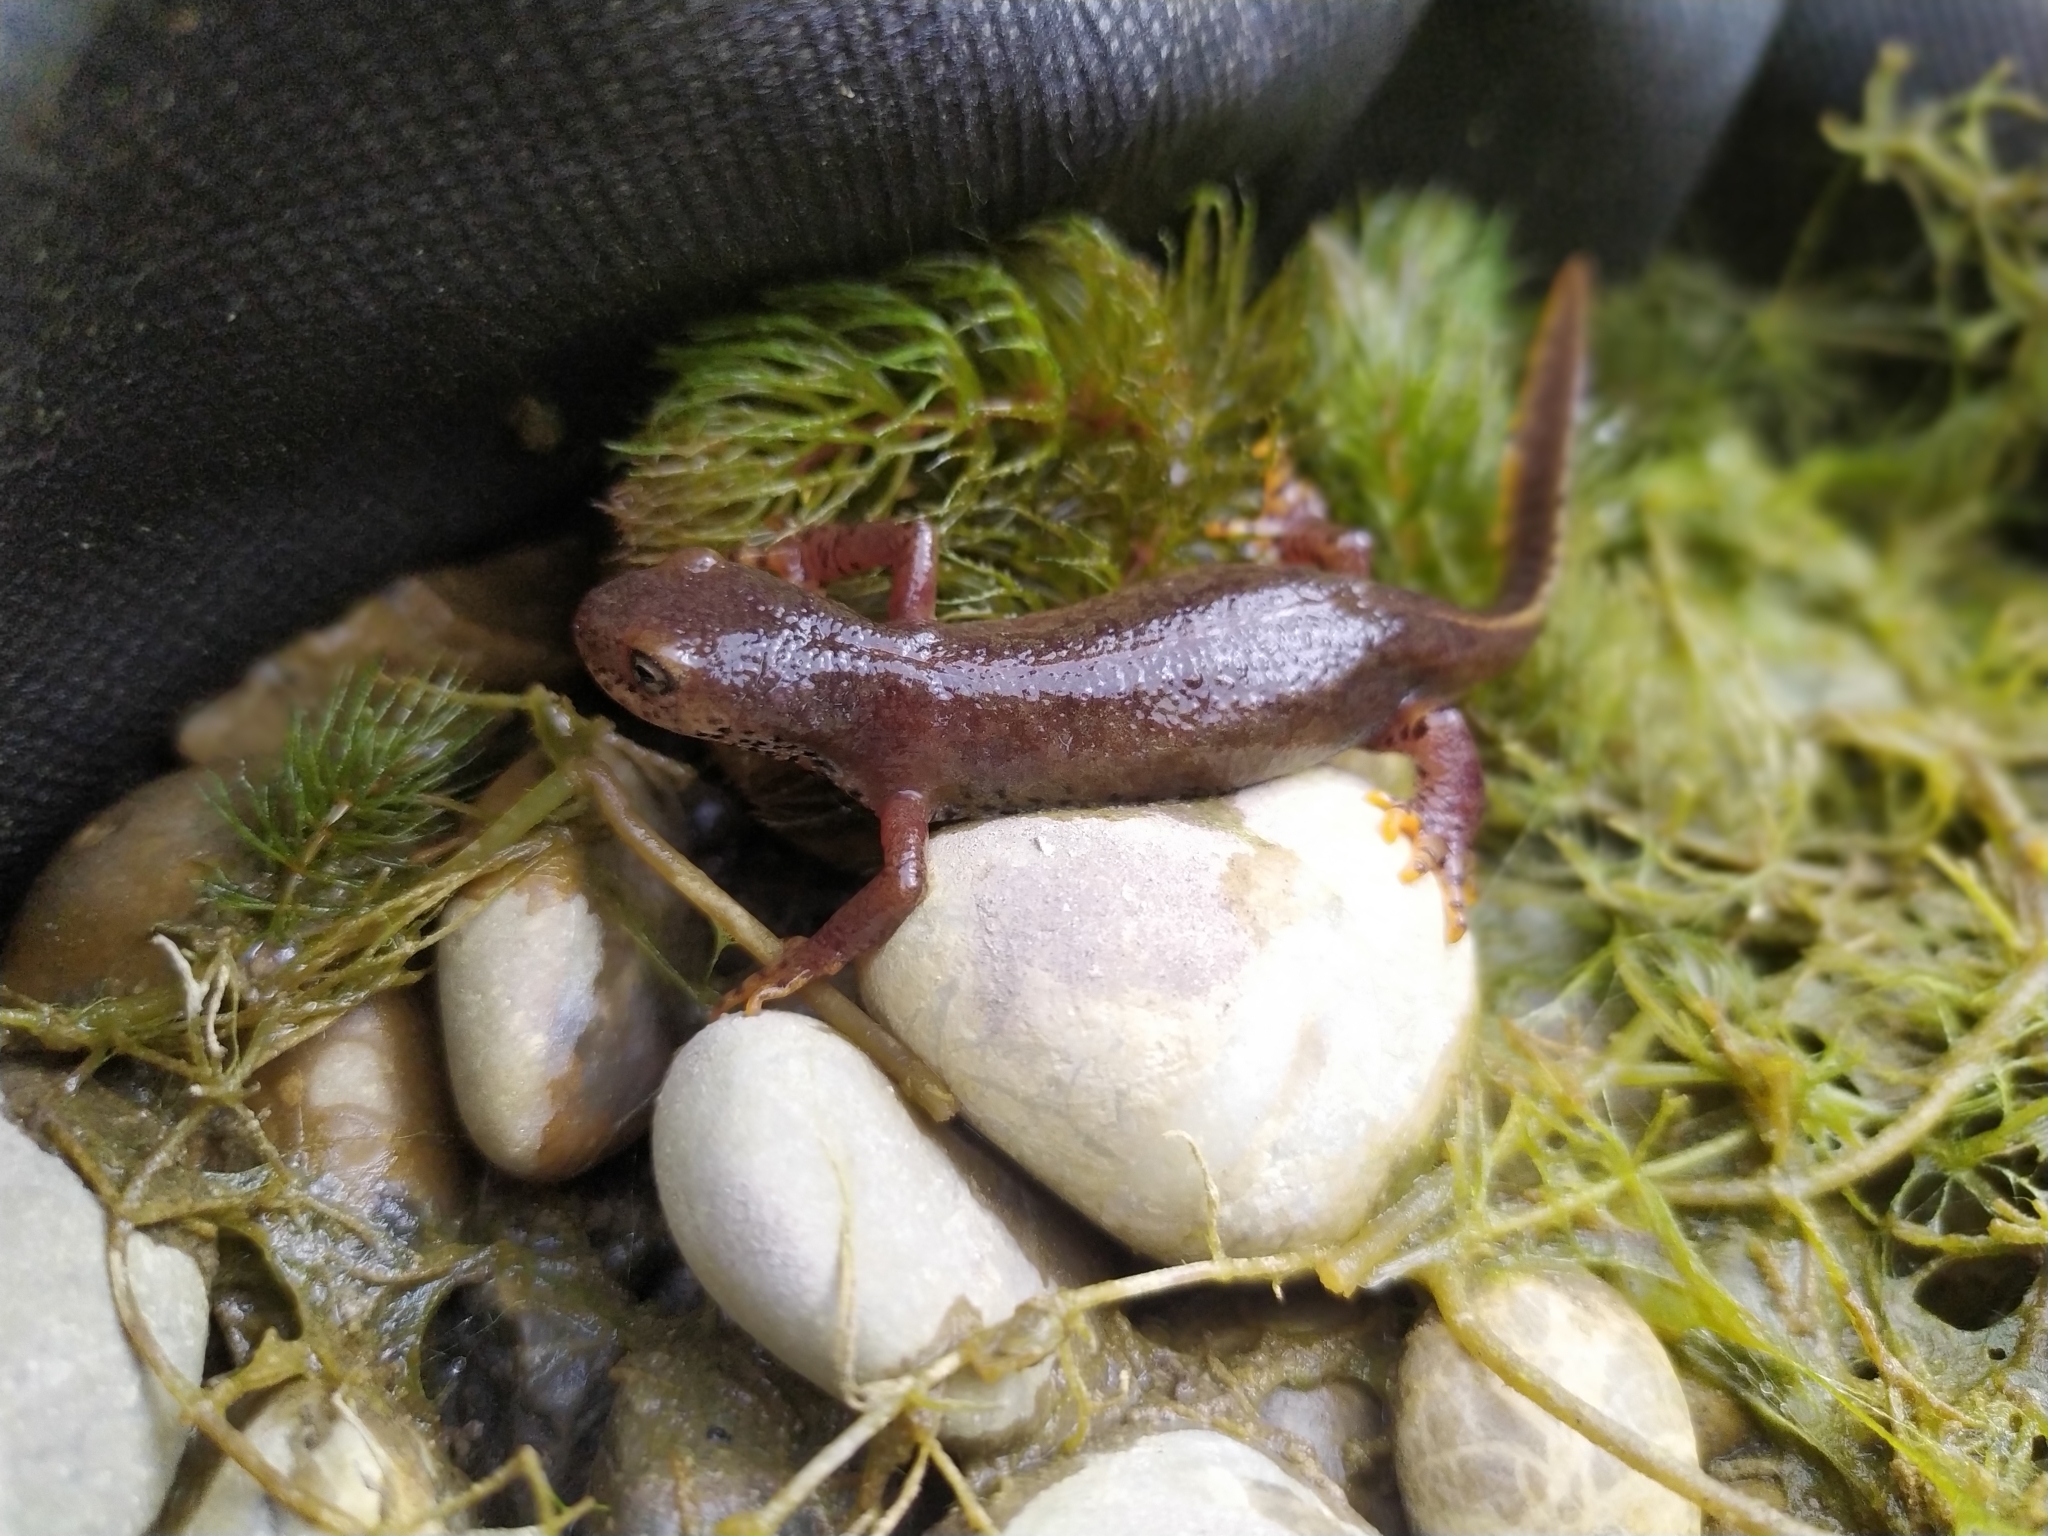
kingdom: Animalia
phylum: Chordata
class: Amphibia
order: Caudata
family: Salamandridae
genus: Ichthyosaura
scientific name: Ichthyosaura alpestris
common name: Alpine newt
